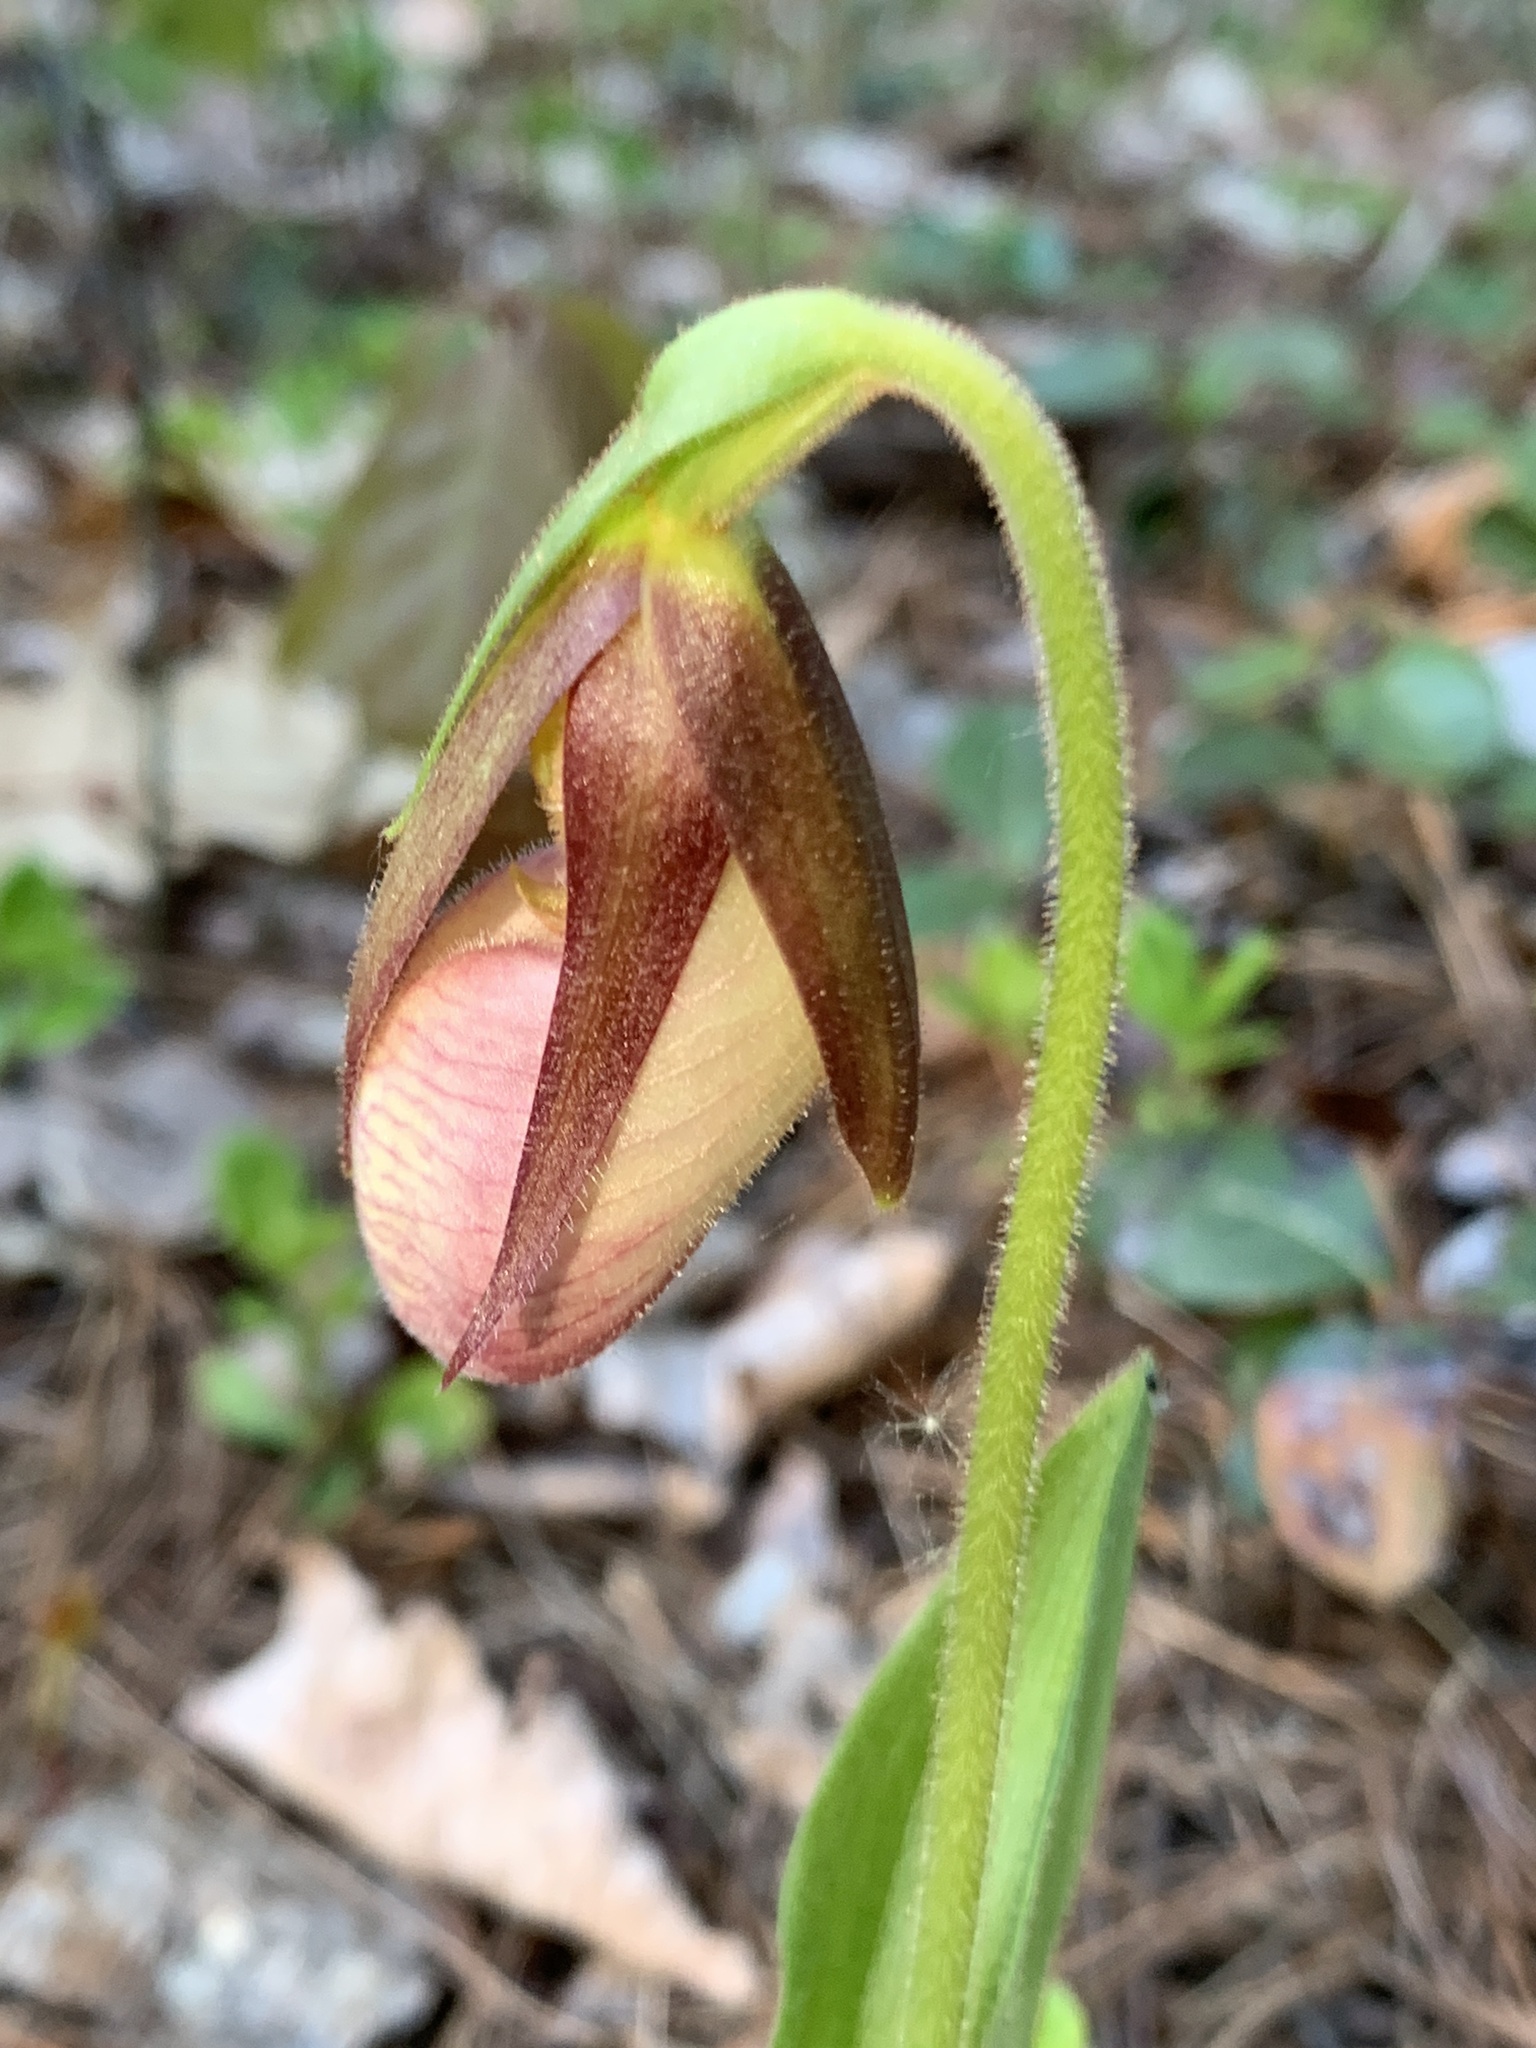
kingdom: Plantae
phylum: Tracheophyta
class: Liliopsida
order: Asparagales
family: Orchidaceae
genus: Cypripedium
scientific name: Cypripedium acaule
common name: Pink lady's-slipper
